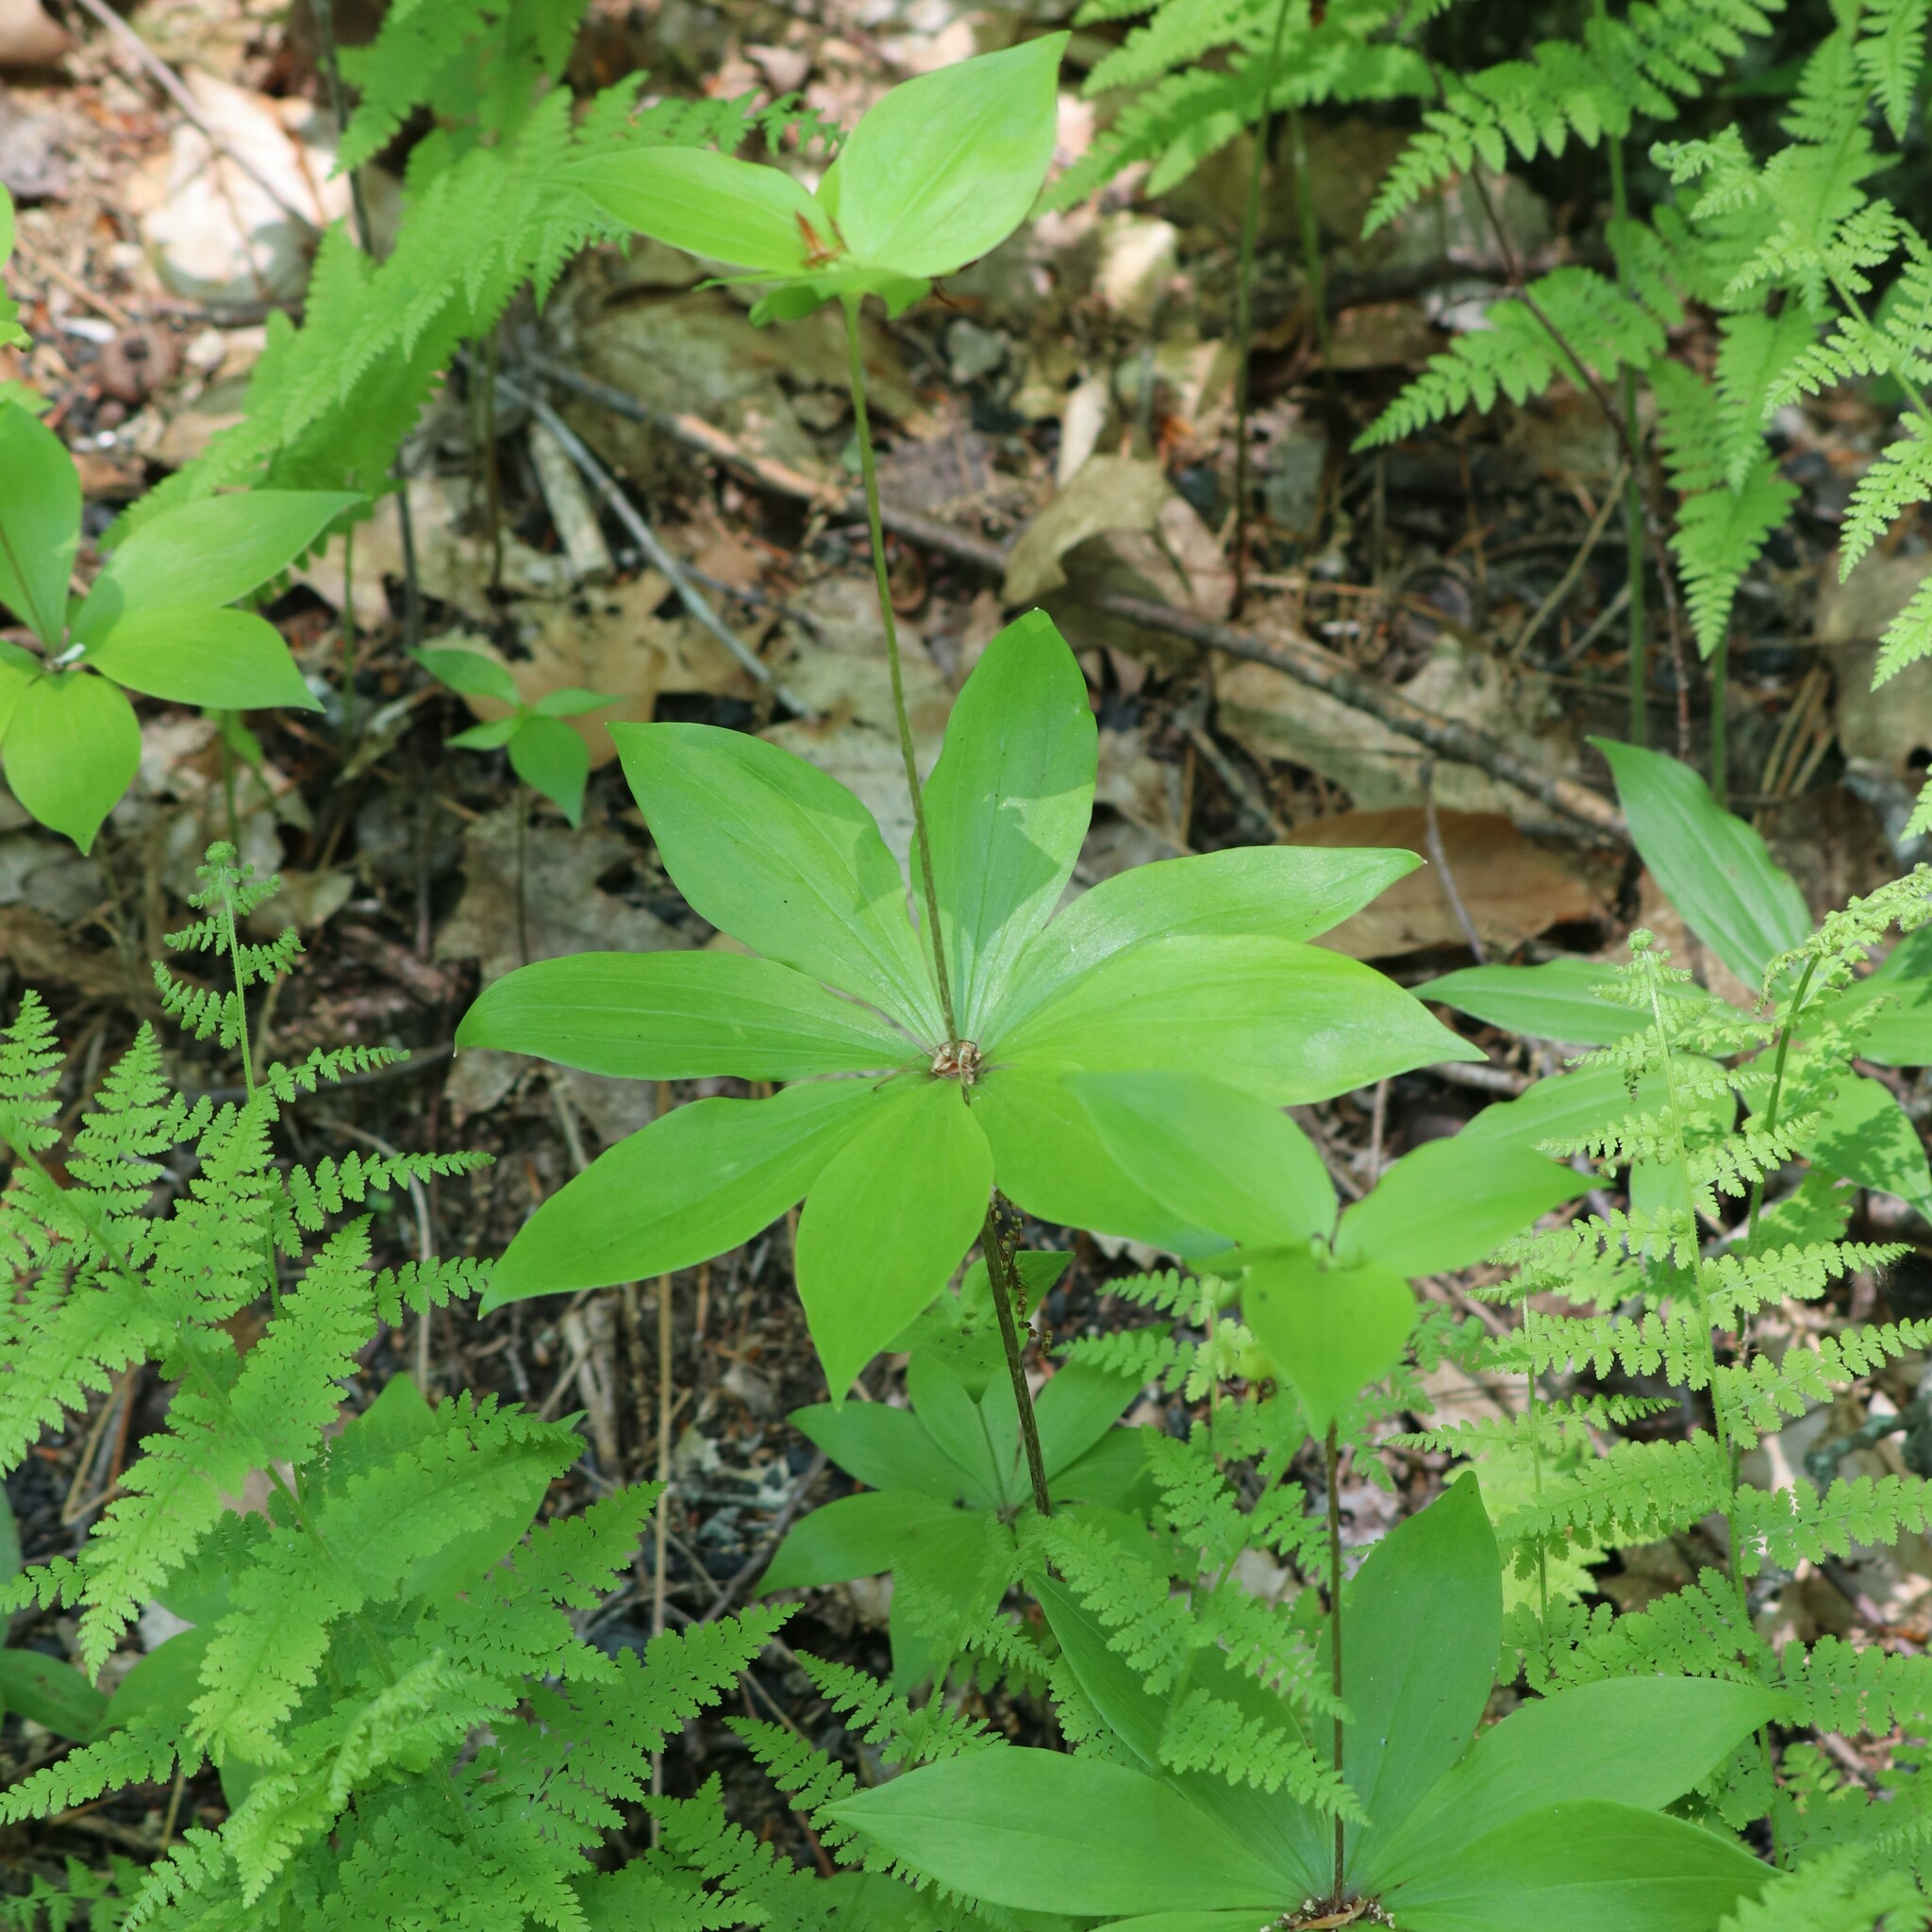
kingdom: Plantae
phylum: Tracheophyta
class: Liliopsida
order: Liliales
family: Liliaceae
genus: Medeola
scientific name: Medeola virginiana
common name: Indian cucumber-root
